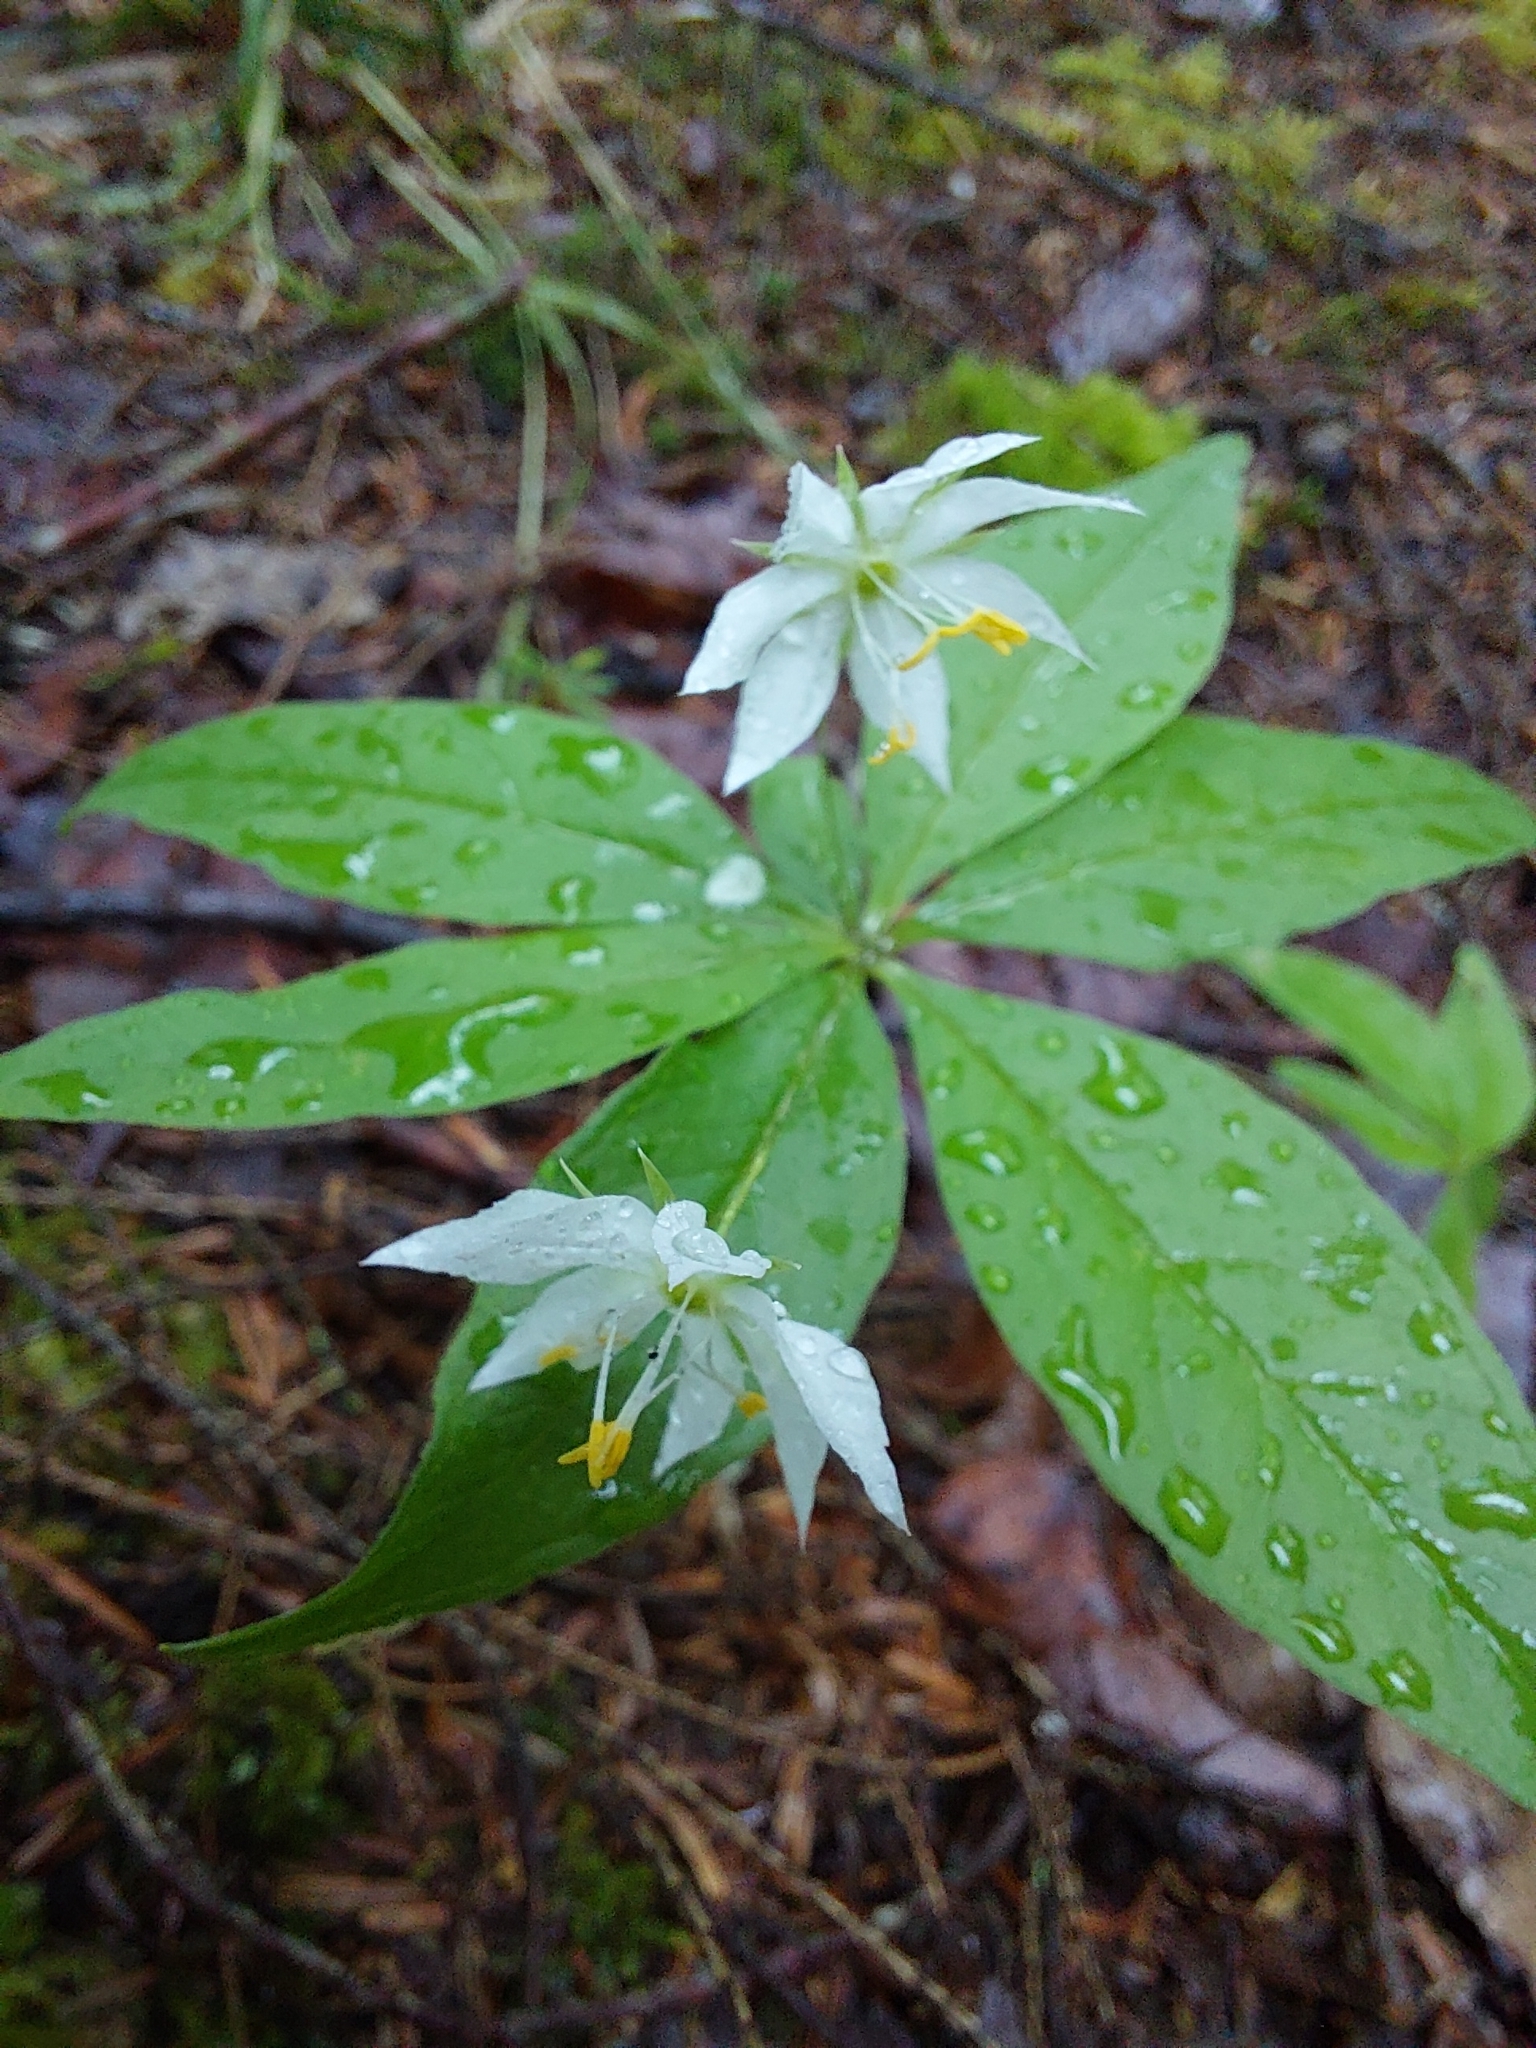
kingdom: Plantae
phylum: Tracheophyta
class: Magnoliopsida
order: Ericales
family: Primulaceae
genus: Lysimachia
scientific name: Lysimachia borealis
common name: American starflower
